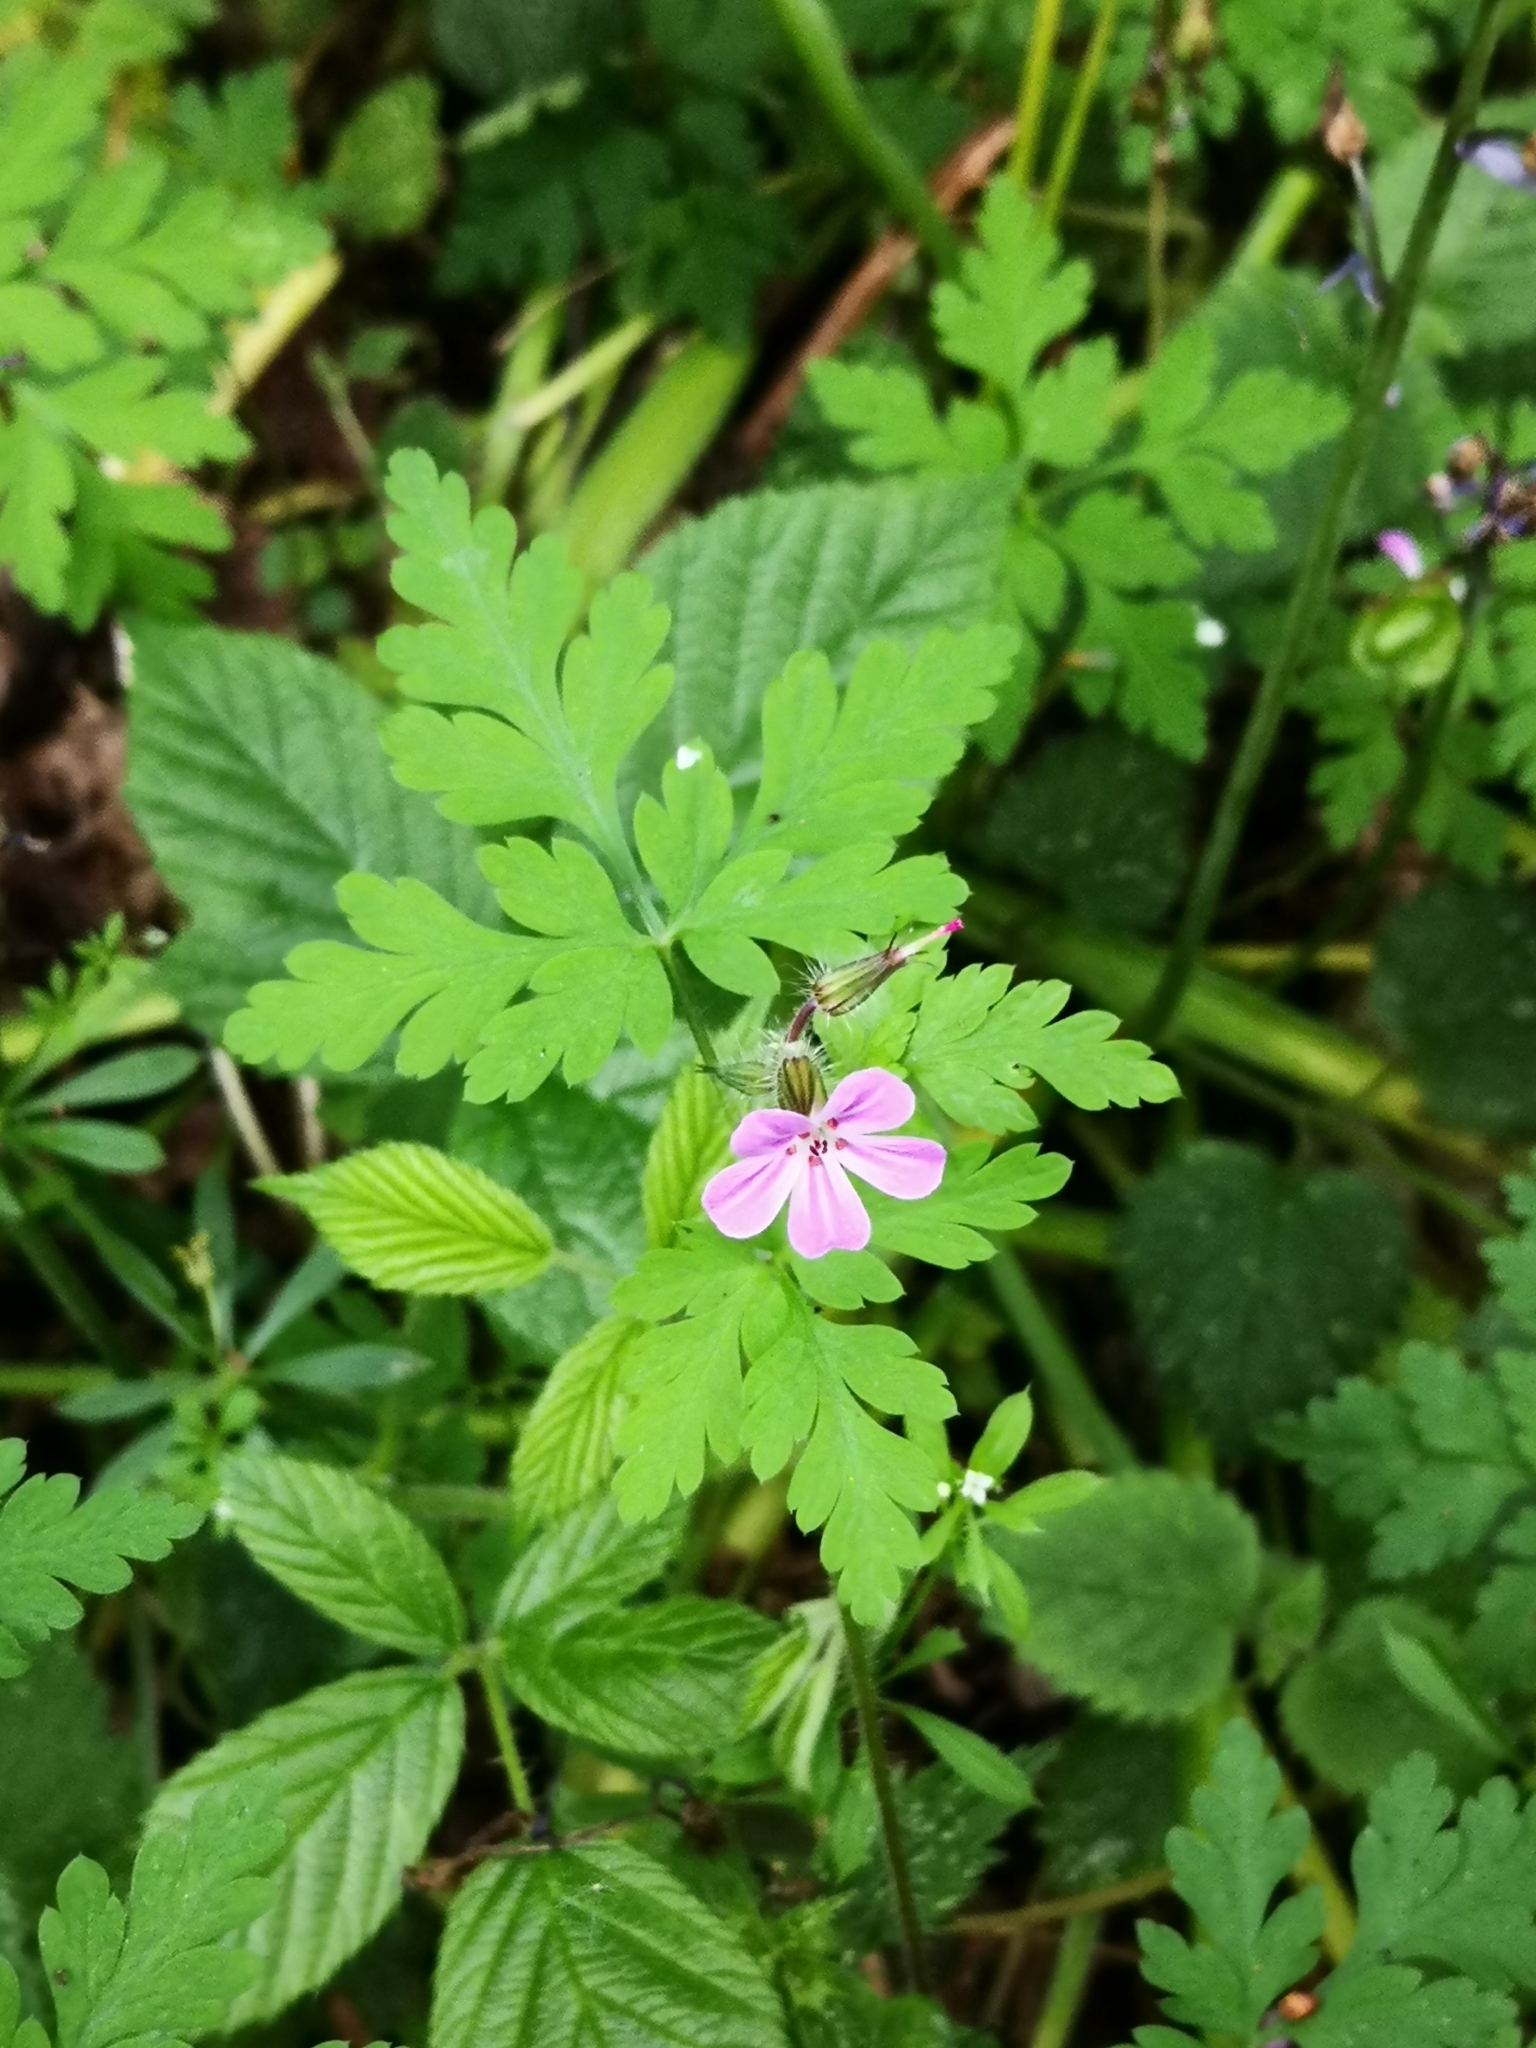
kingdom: Plantae
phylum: Tracheophyta
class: Magnoliopsida
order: Geraniales
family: Geraniaceae
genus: Geranium
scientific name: Geranium robertianum
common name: Herb-robert
